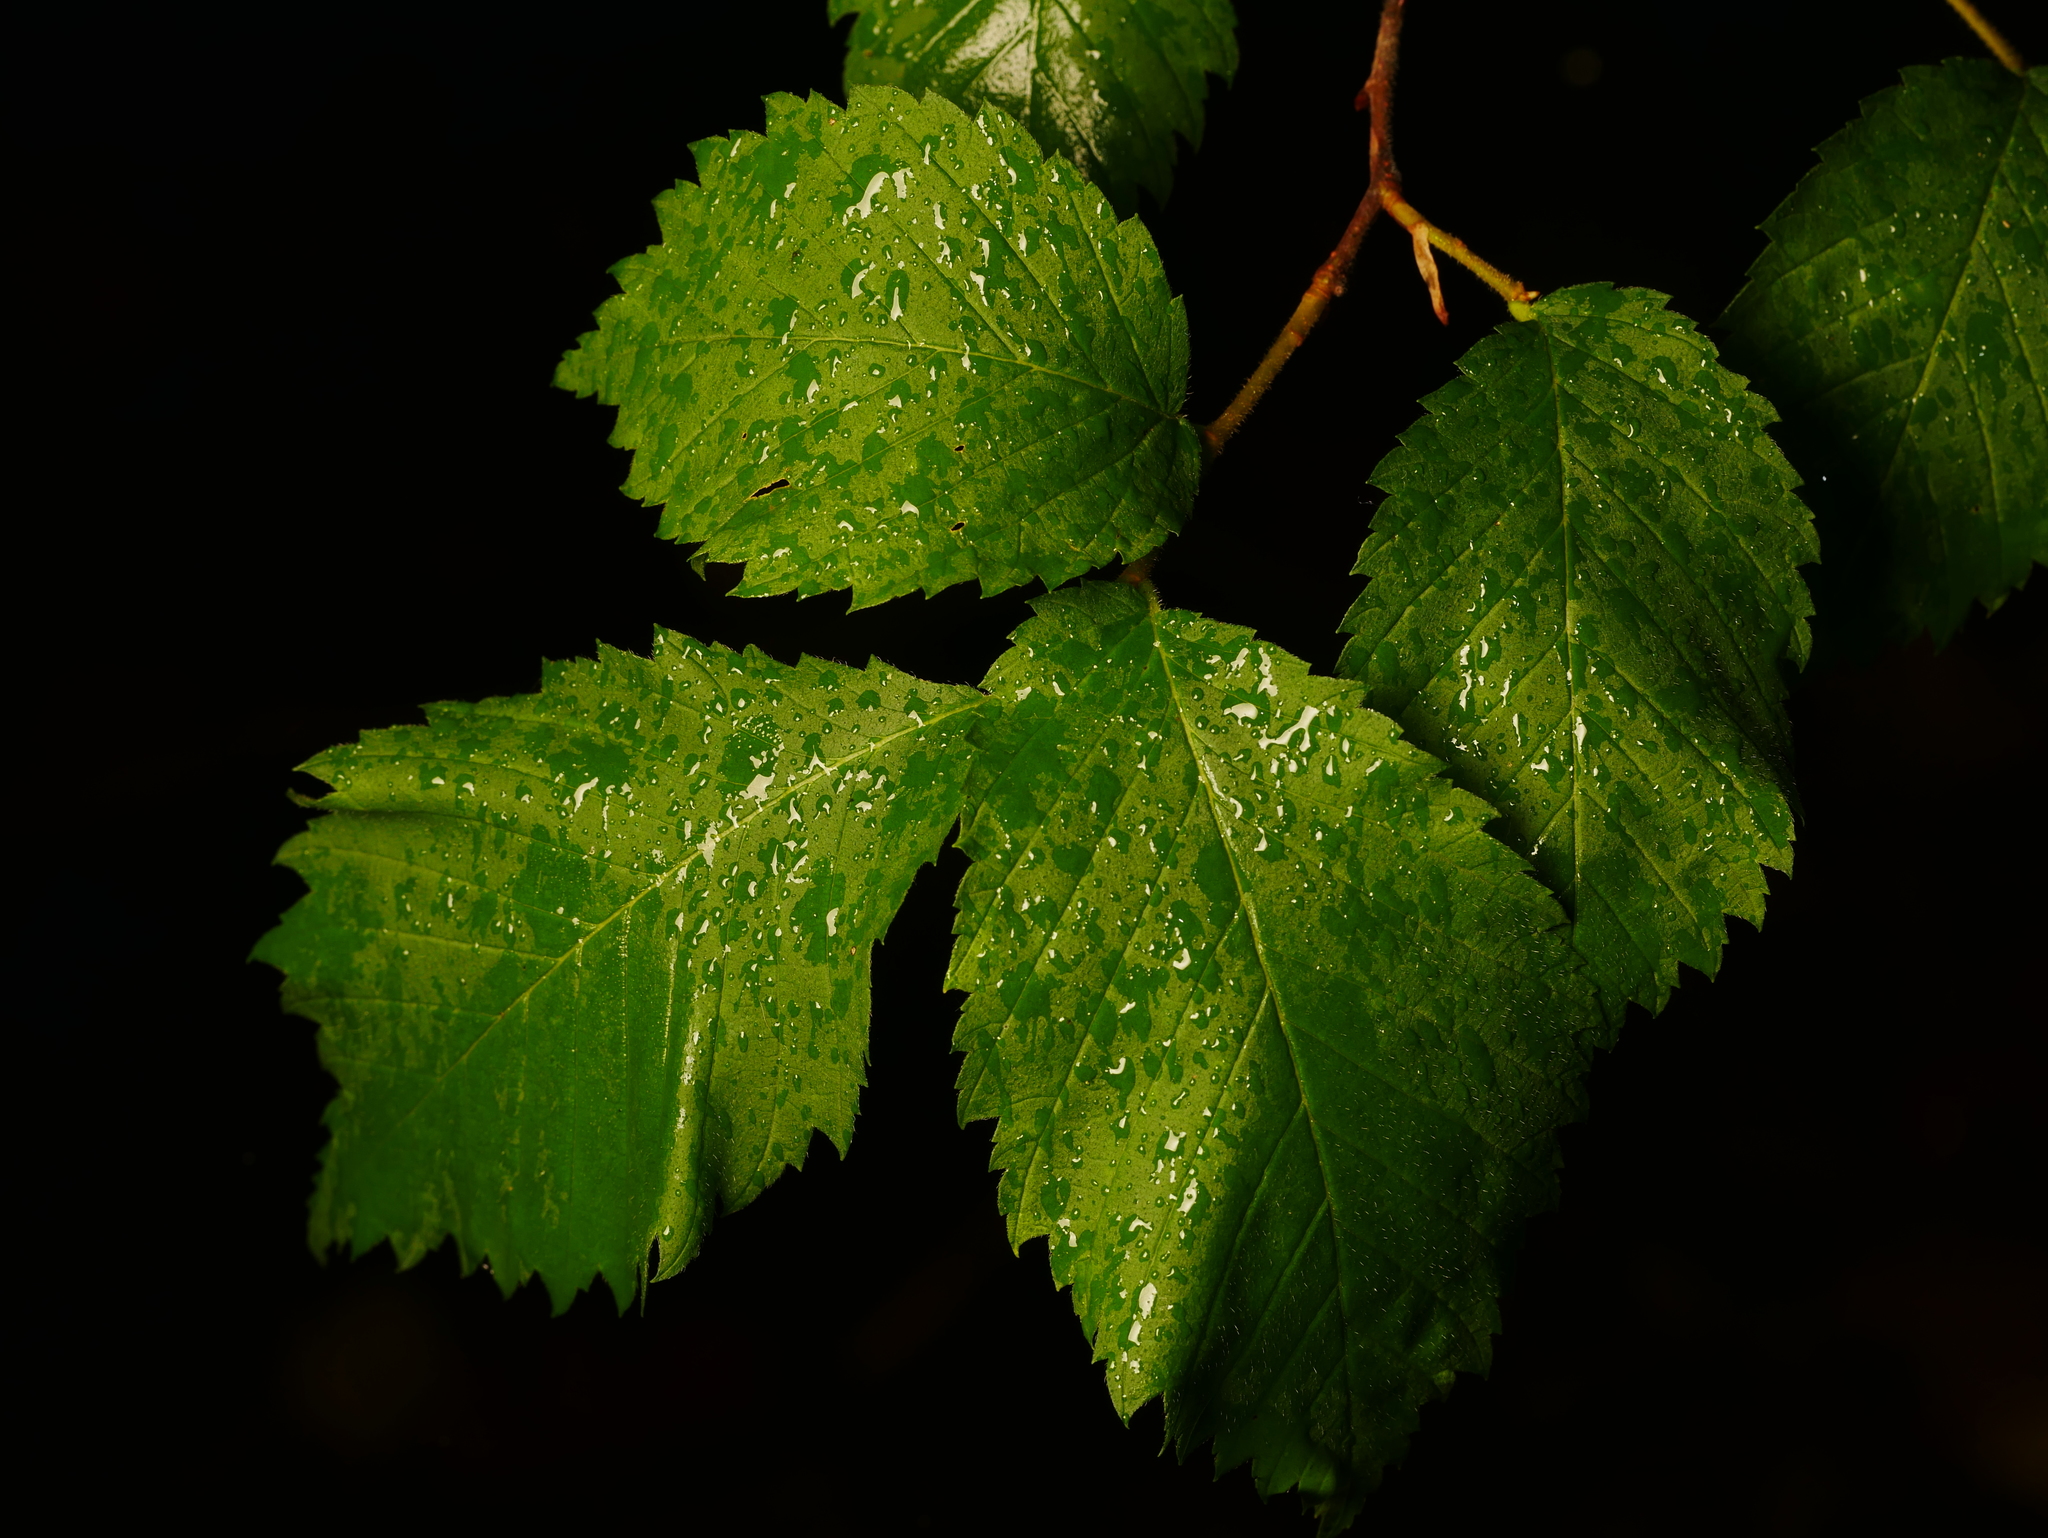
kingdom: Plantae
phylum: Tracheophyta
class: Magnoliopsida
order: Rosales
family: Ulmaceae
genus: Ulmus
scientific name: Ulmus minor
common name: Small-leaved elm
